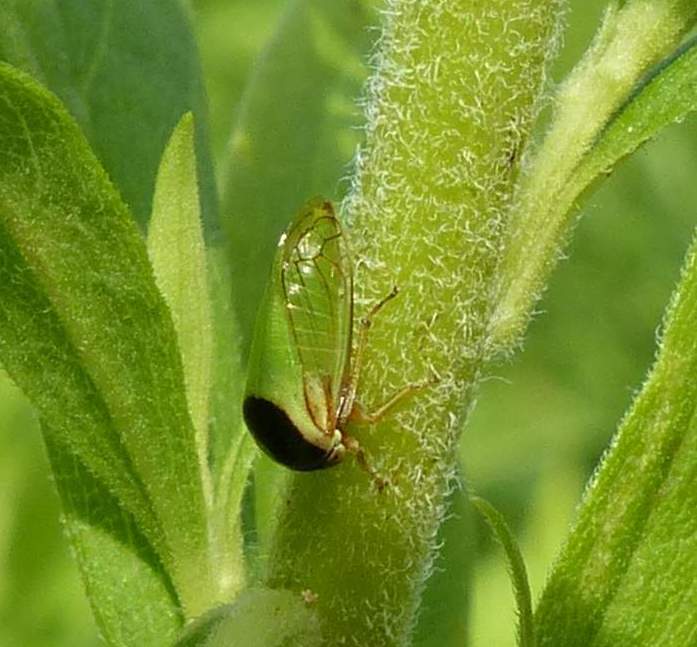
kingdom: Animalia
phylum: Arthropoda
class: Insecta
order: Hemiptera
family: Membracidae
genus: Acutalis
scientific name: Acutalis tartarea
